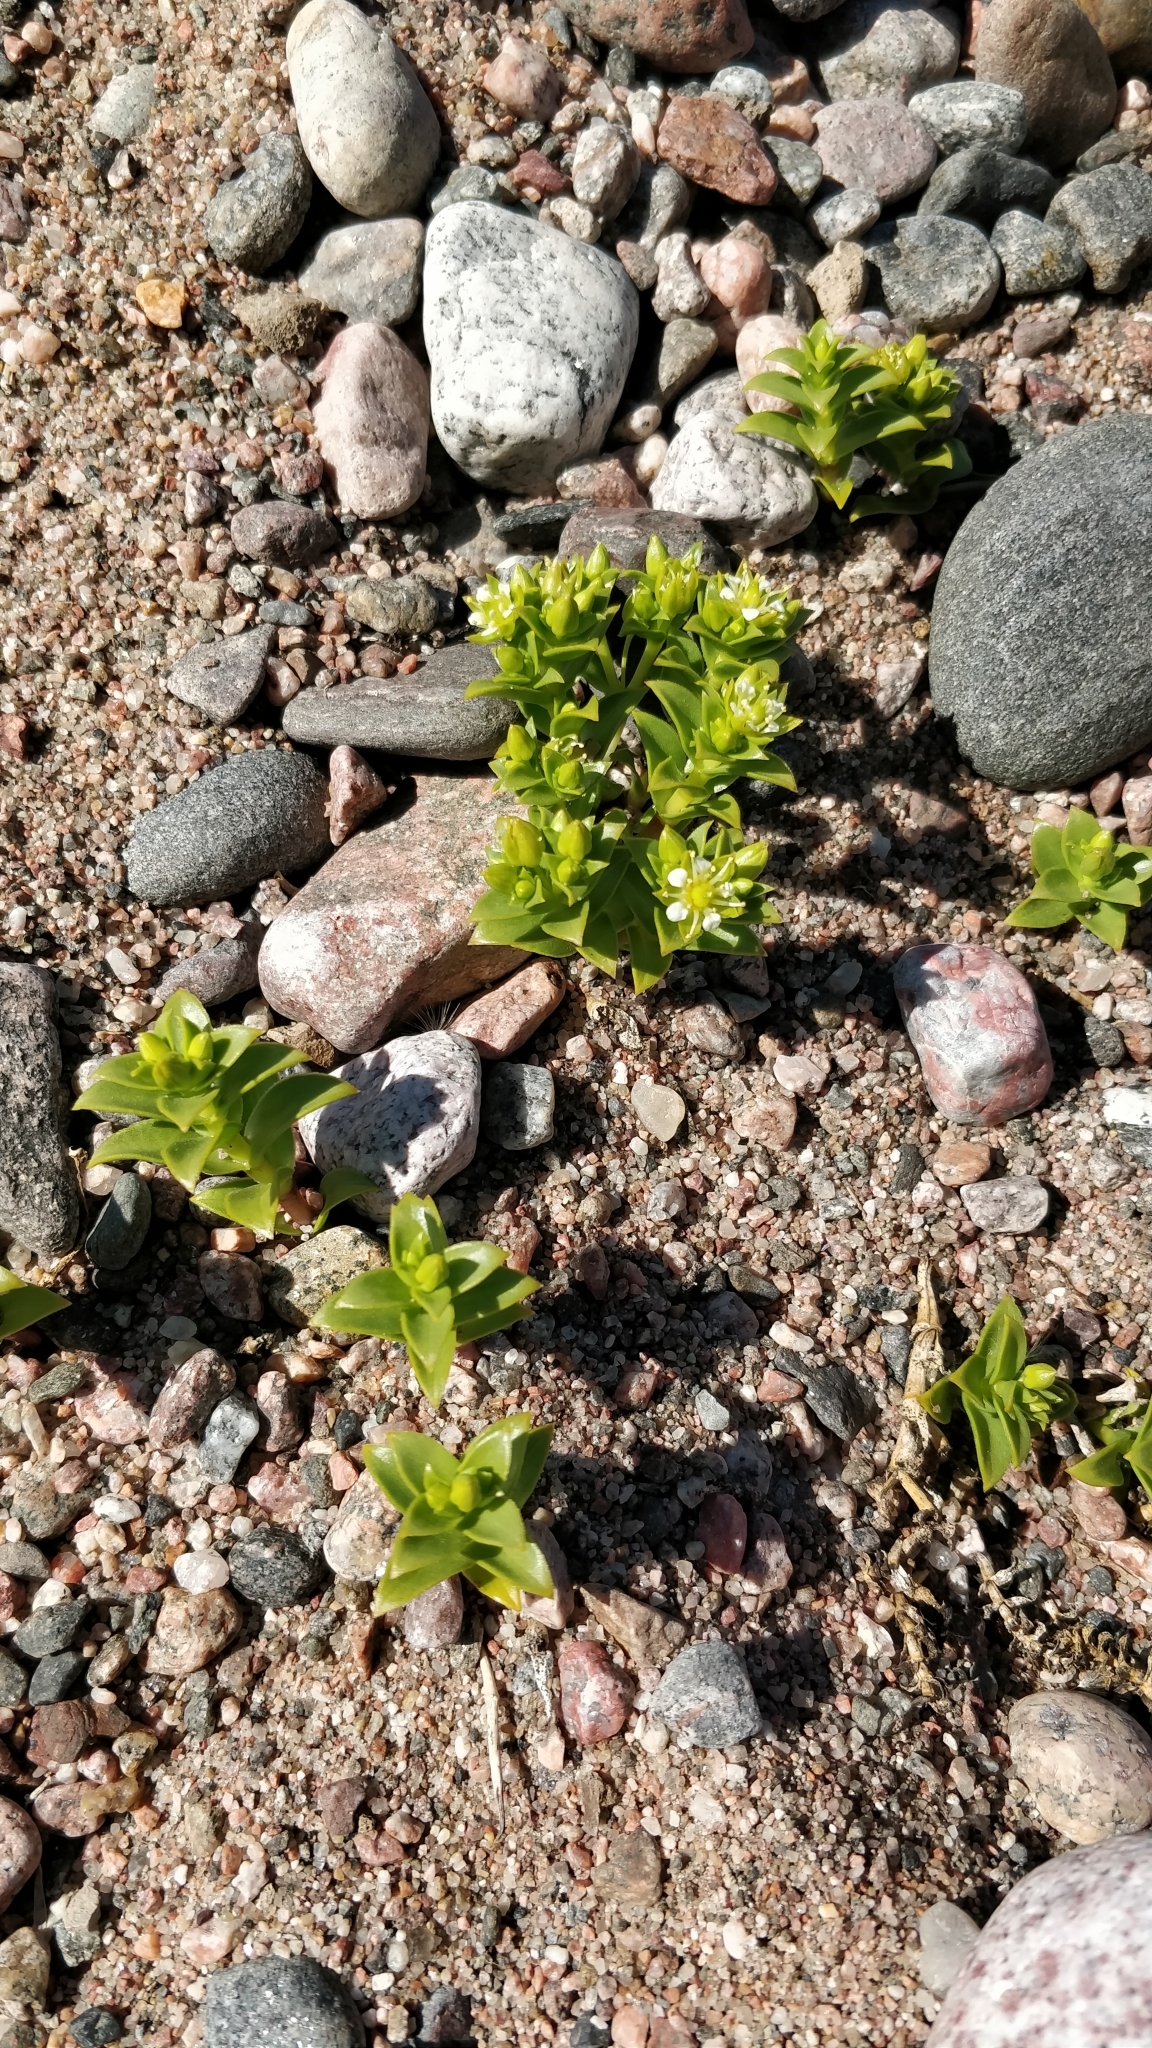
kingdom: Plantae
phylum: Tracheophyta
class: Magnoliopsida
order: Caryophyllales
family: Caryophyllaceae
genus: Honckenya
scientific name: Honckenya peploides
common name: Sea sandwort
